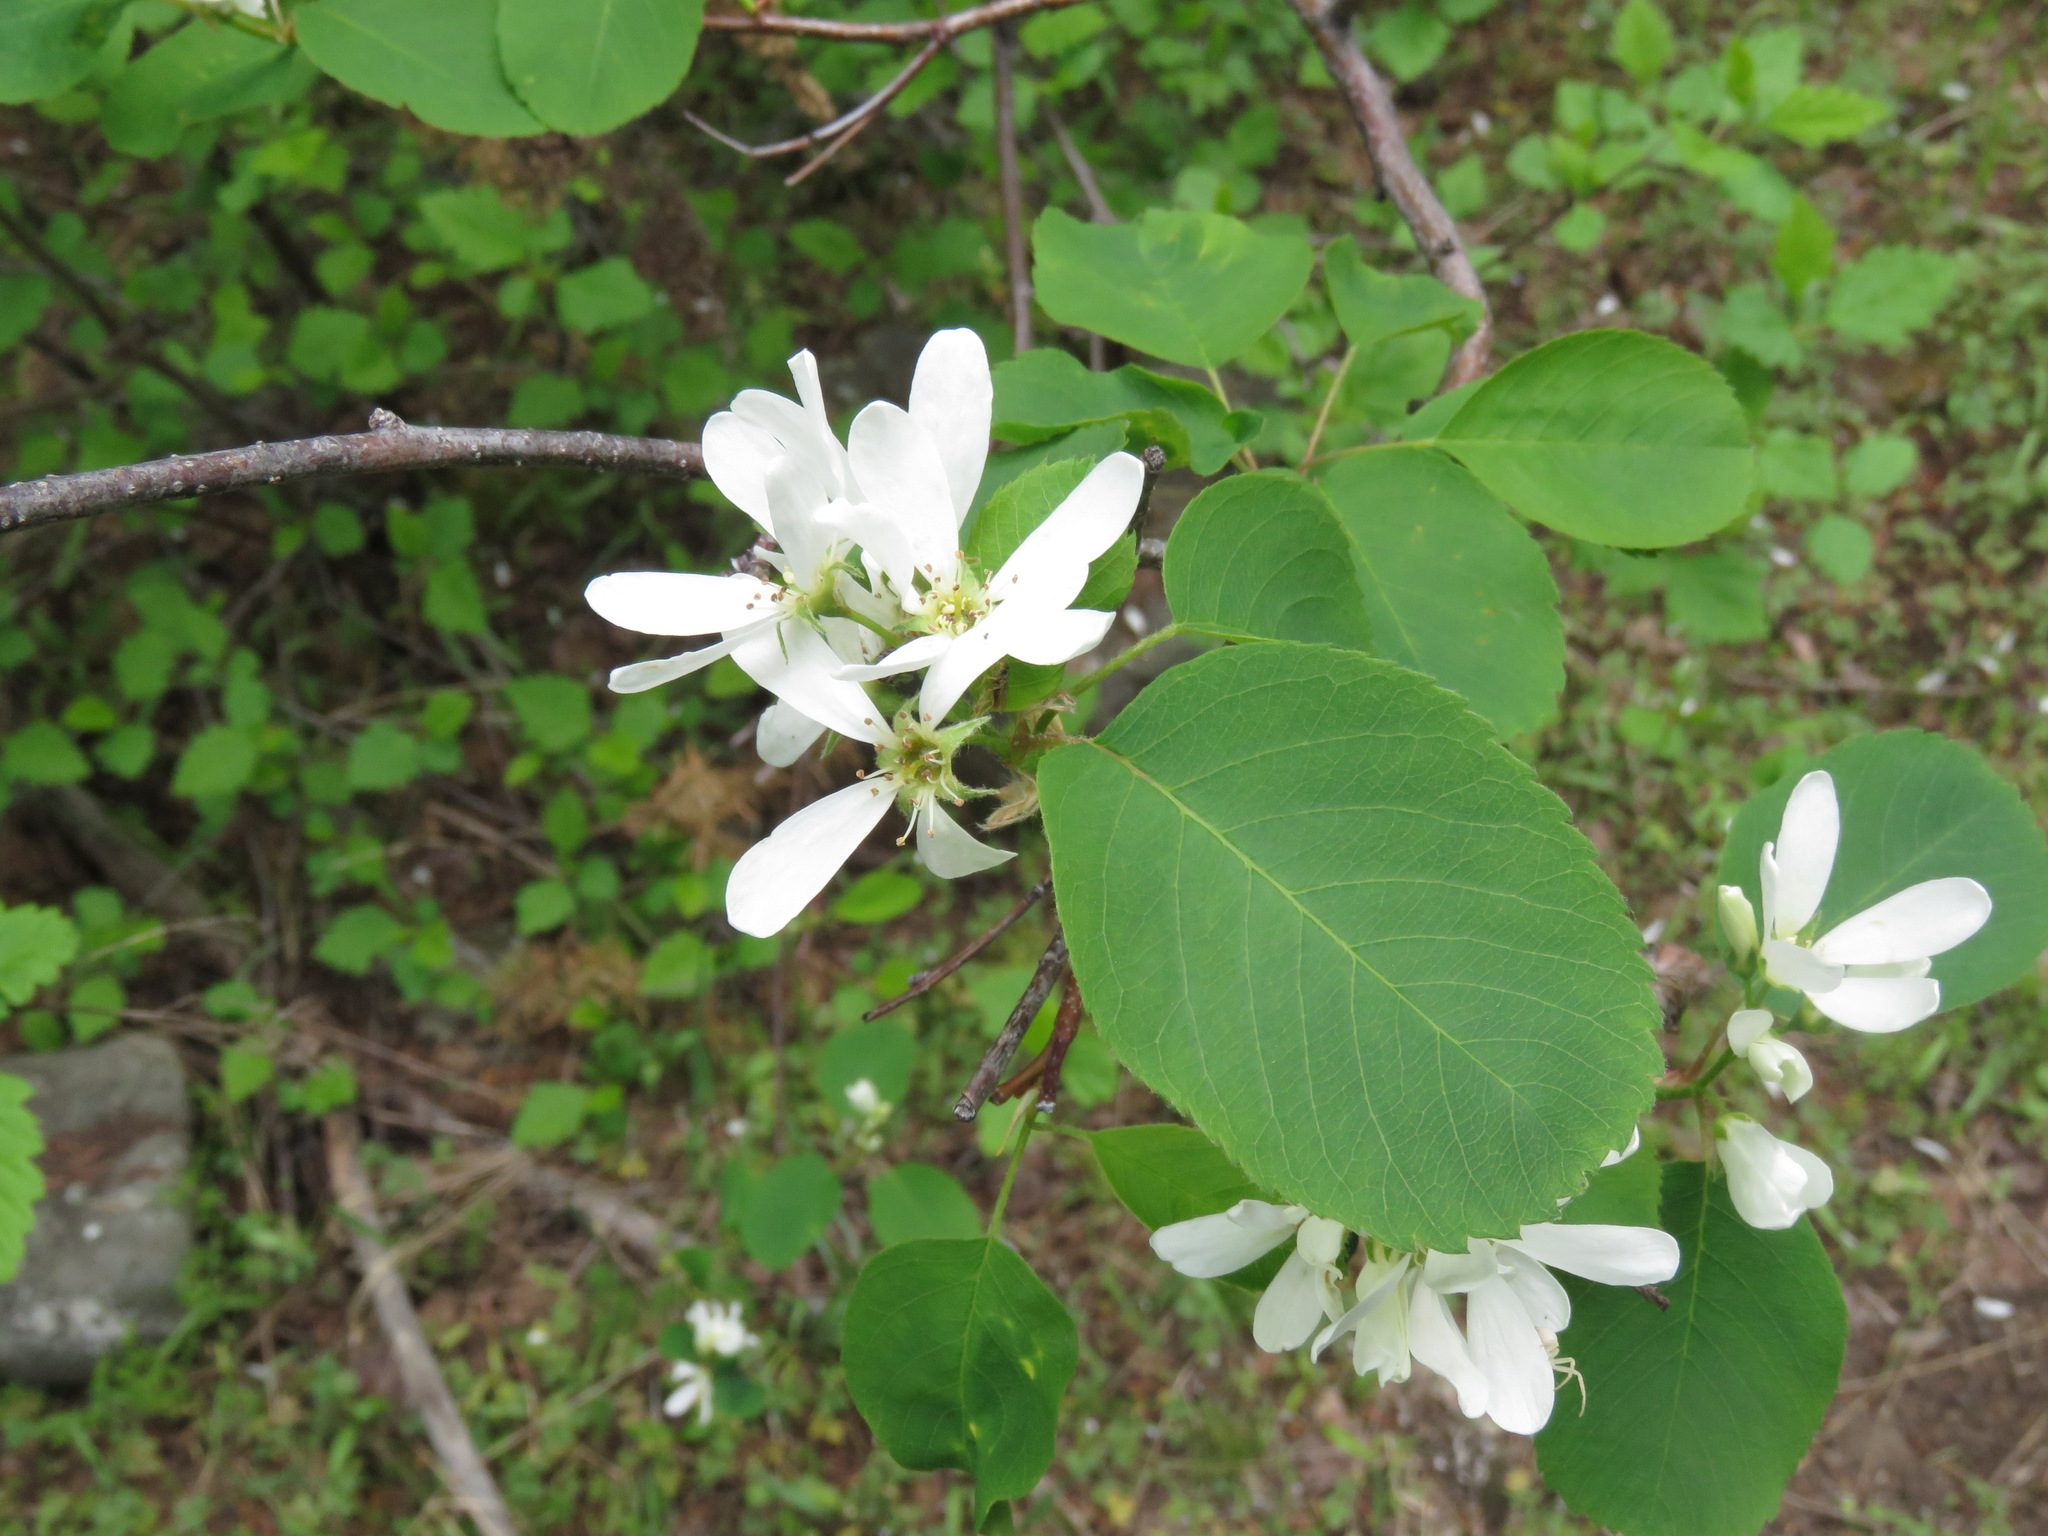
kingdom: Plantae
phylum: Tracheophyta
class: Magnoliopsida
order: Rosales
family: Rosaceae
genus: Amelanchier
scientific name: Amelanchier alnifolia
